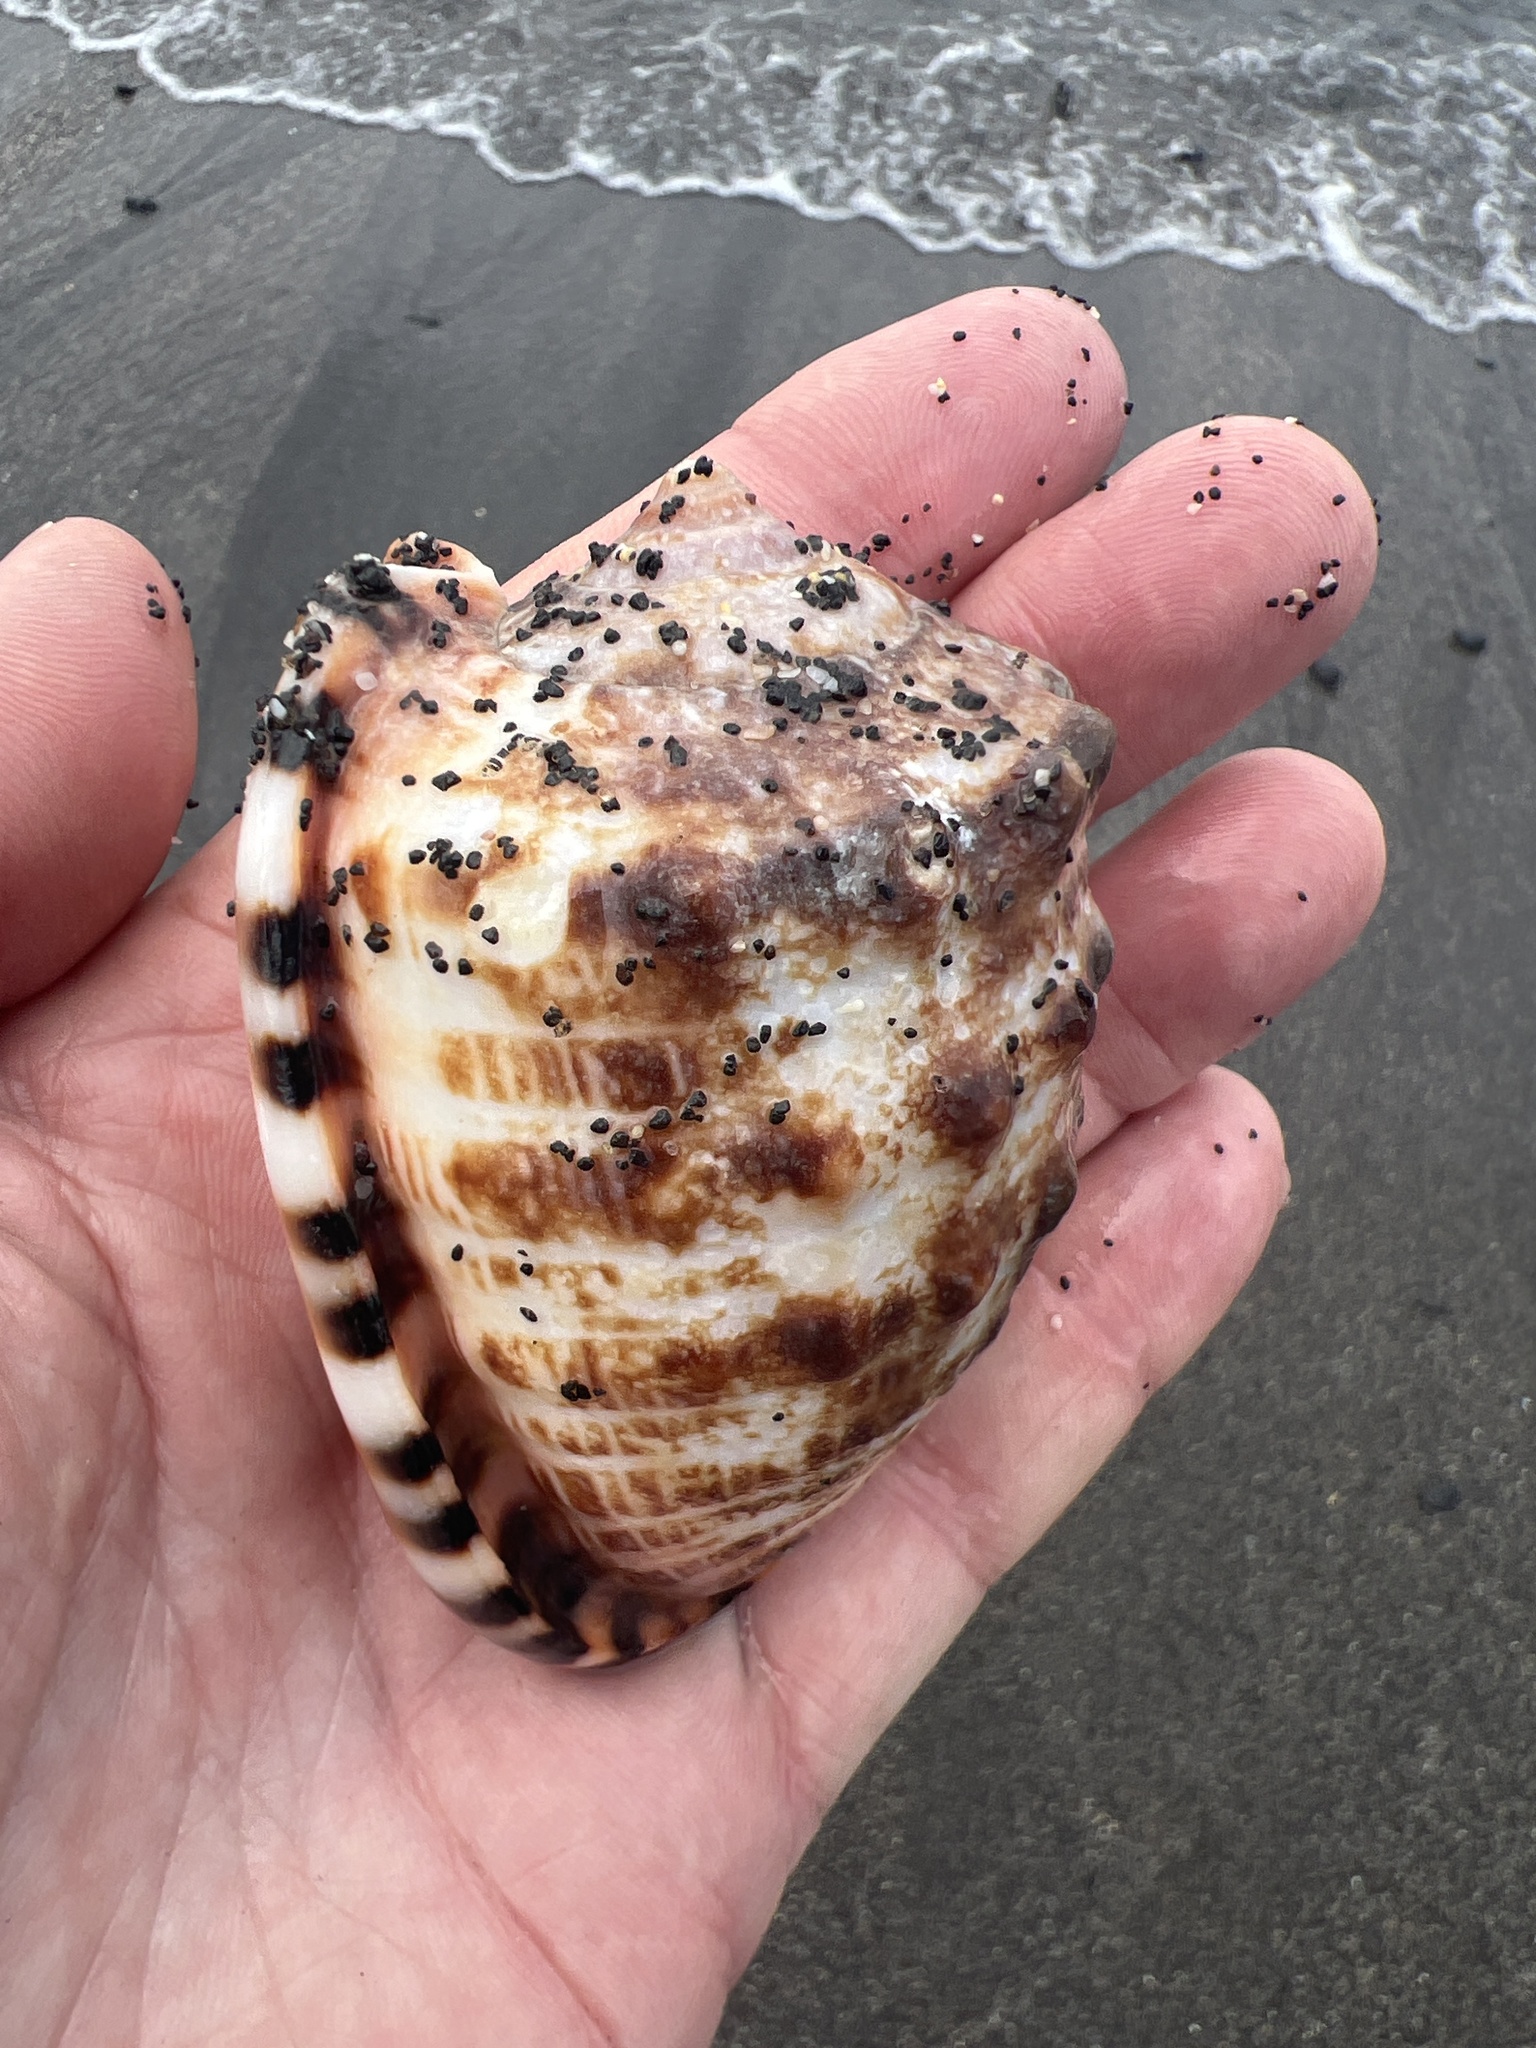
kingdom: Animalia
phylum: Mollusca
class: Gastropoda
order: Littorinimorpha
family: Cassidae
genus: Cypraecassis
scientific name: Cypraecassis tenuis
